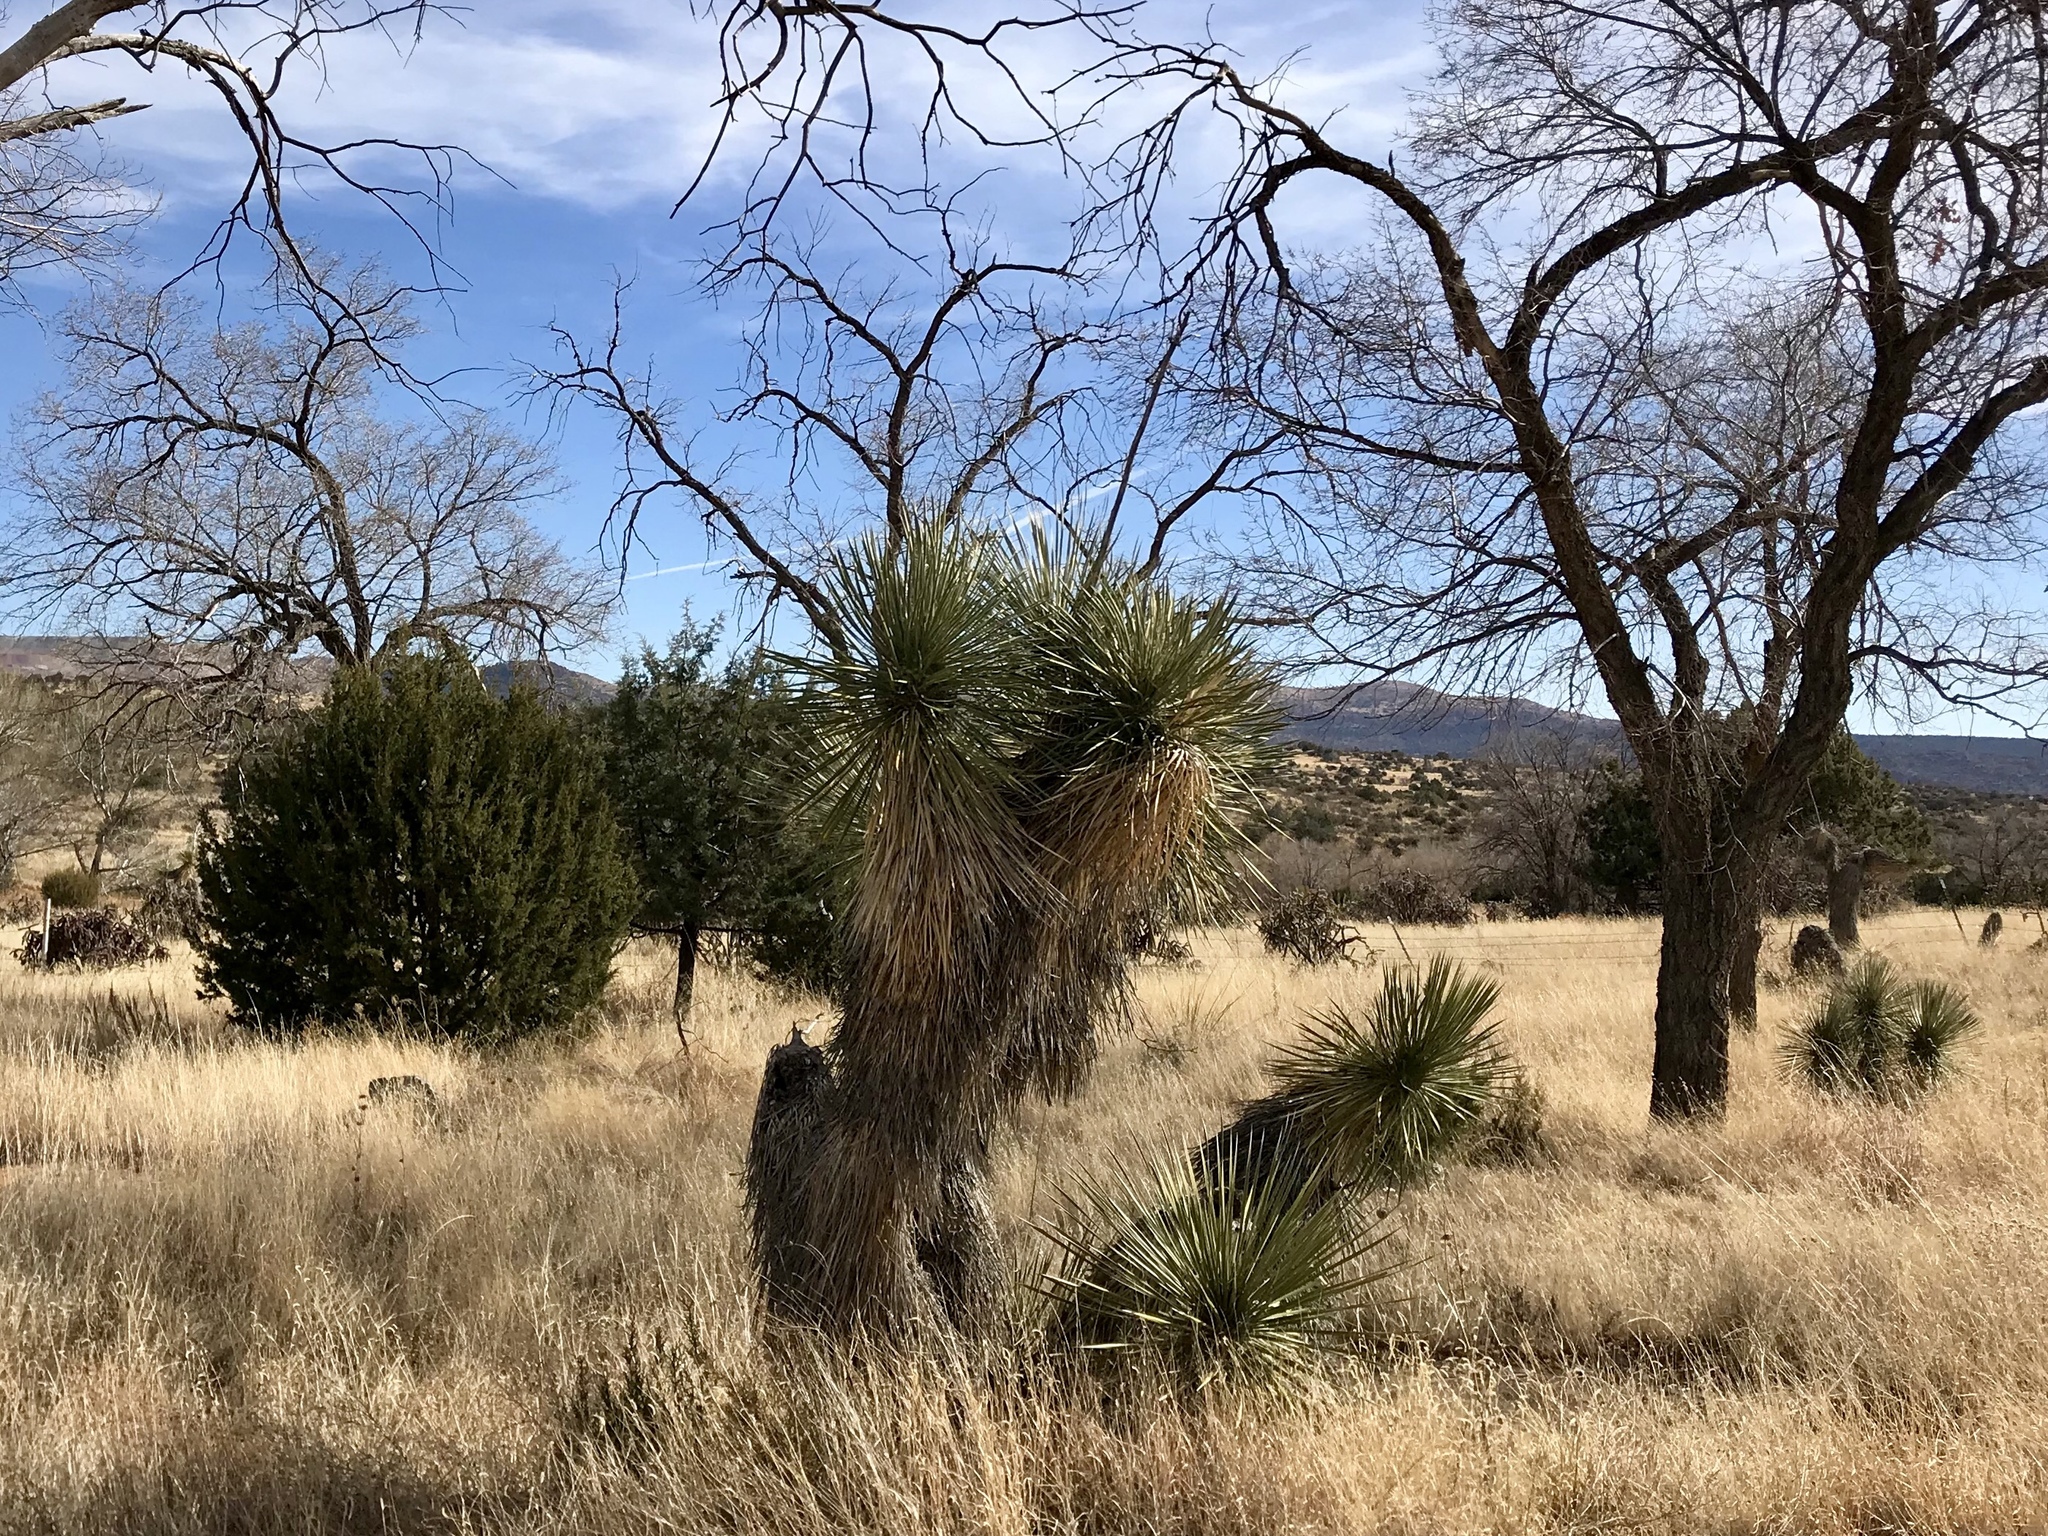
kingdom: Plantae
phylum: Tracheophyta
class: Liliopsida
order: Asparagales
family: Asparagaceae
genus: Yucca
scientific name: Yucca elata
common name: Palmella
